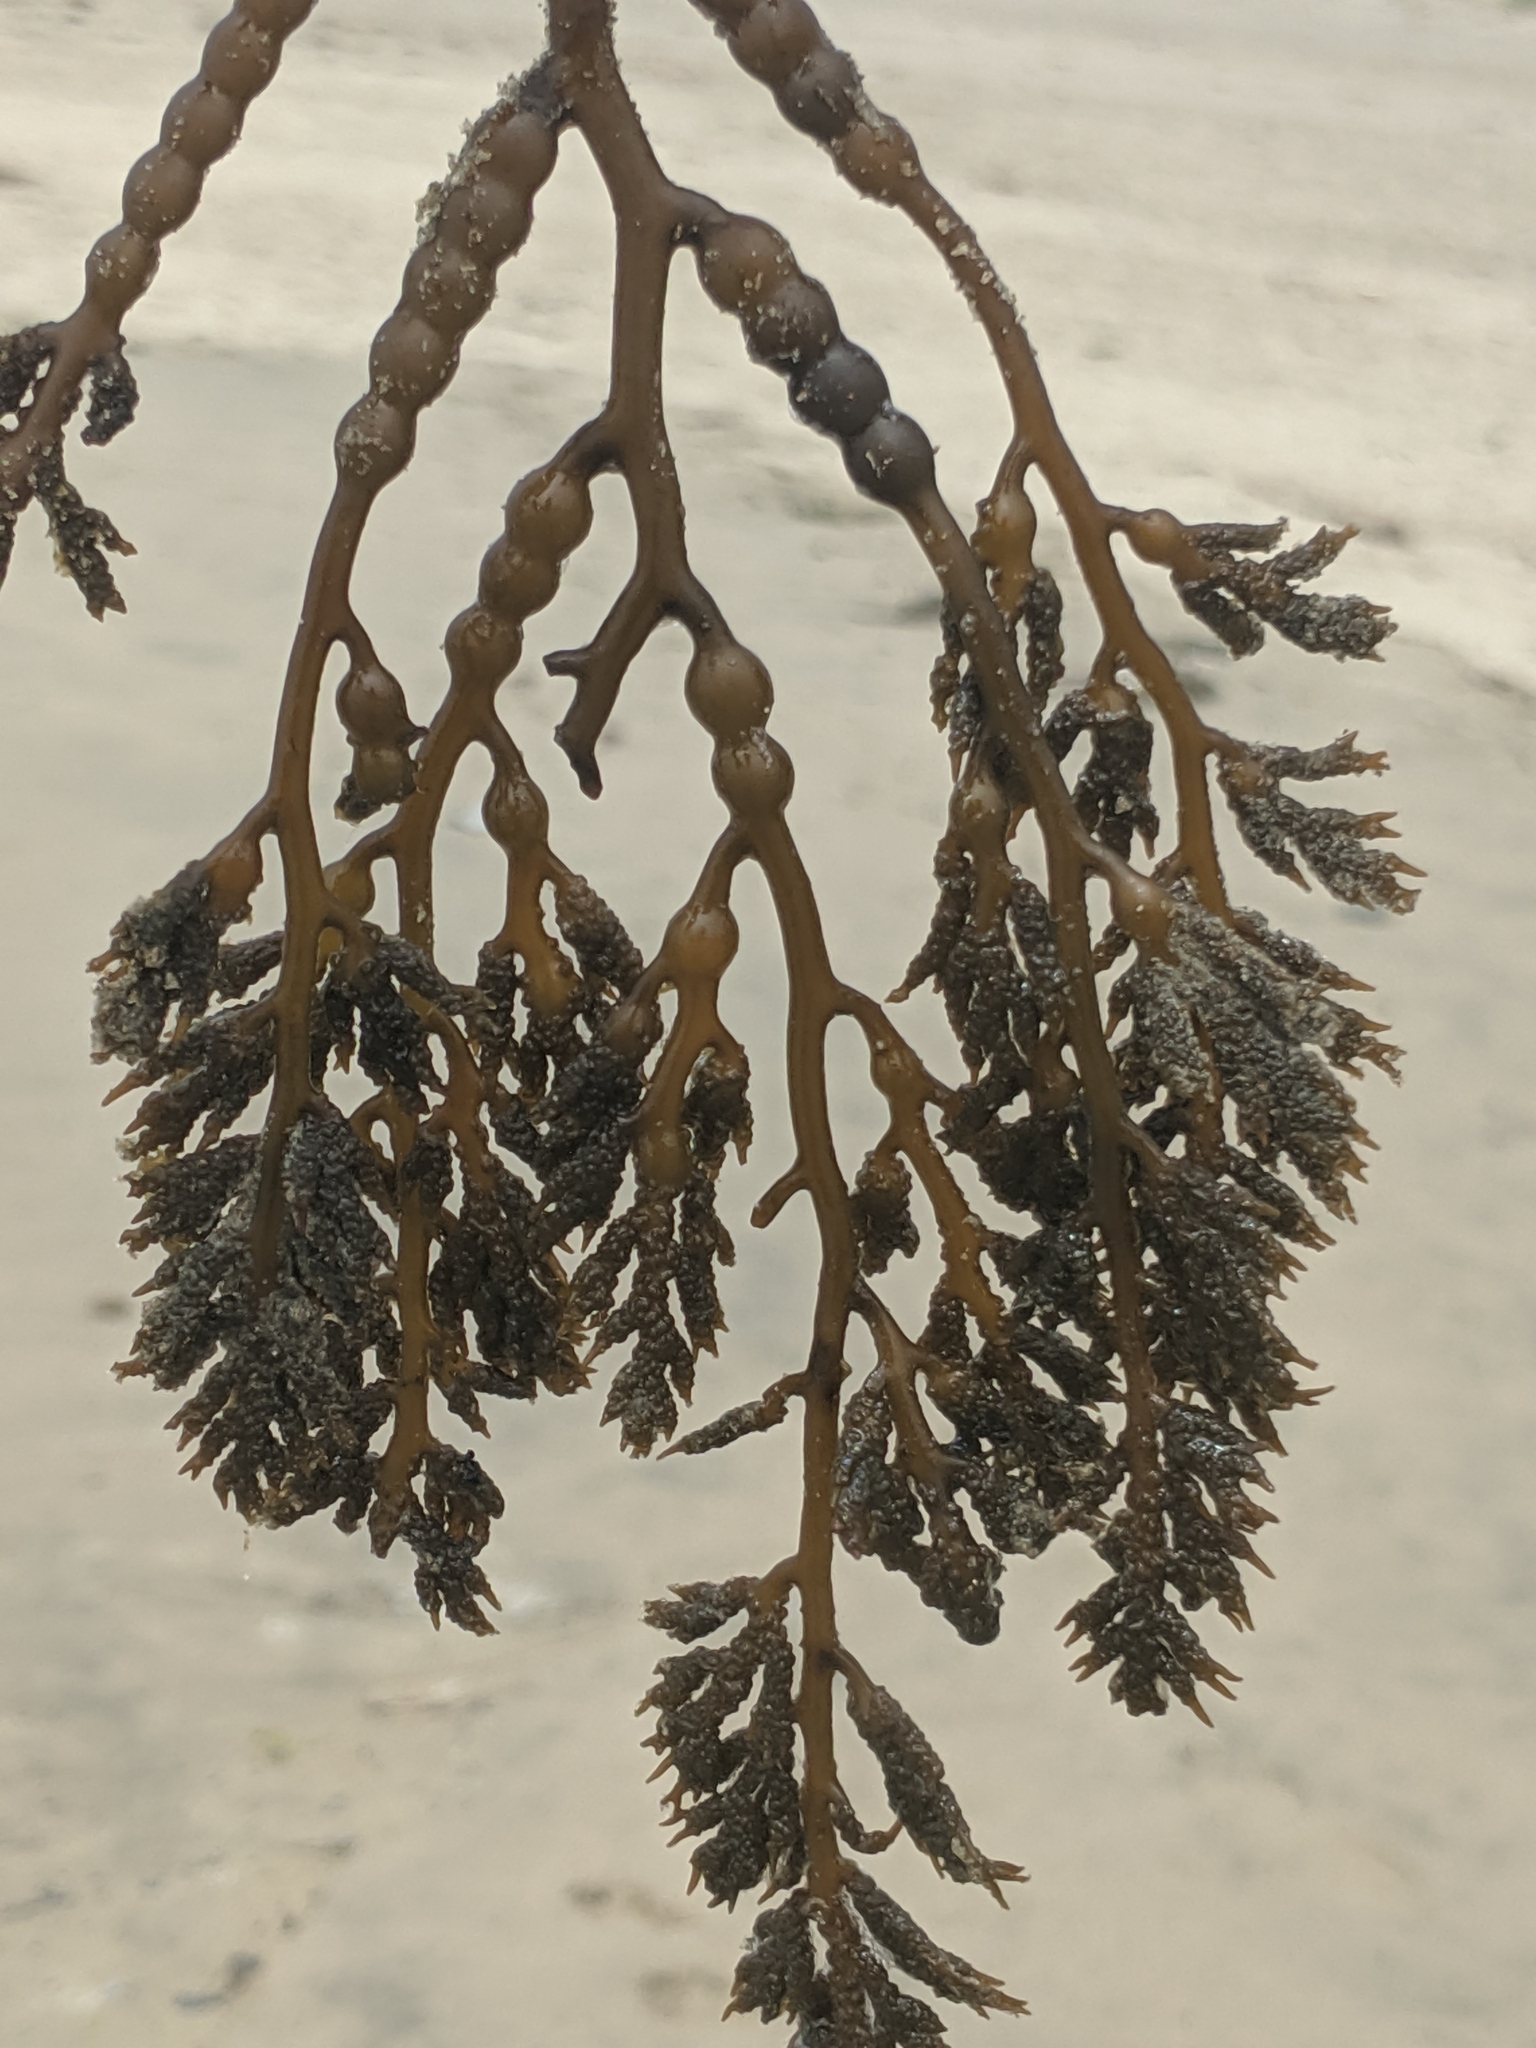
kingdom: Chromista
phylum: Ochrophyta
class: Phaeophyceae
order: Fucales
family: Sargassaceae
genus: Stephanocystis
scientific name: Stephanocystis
